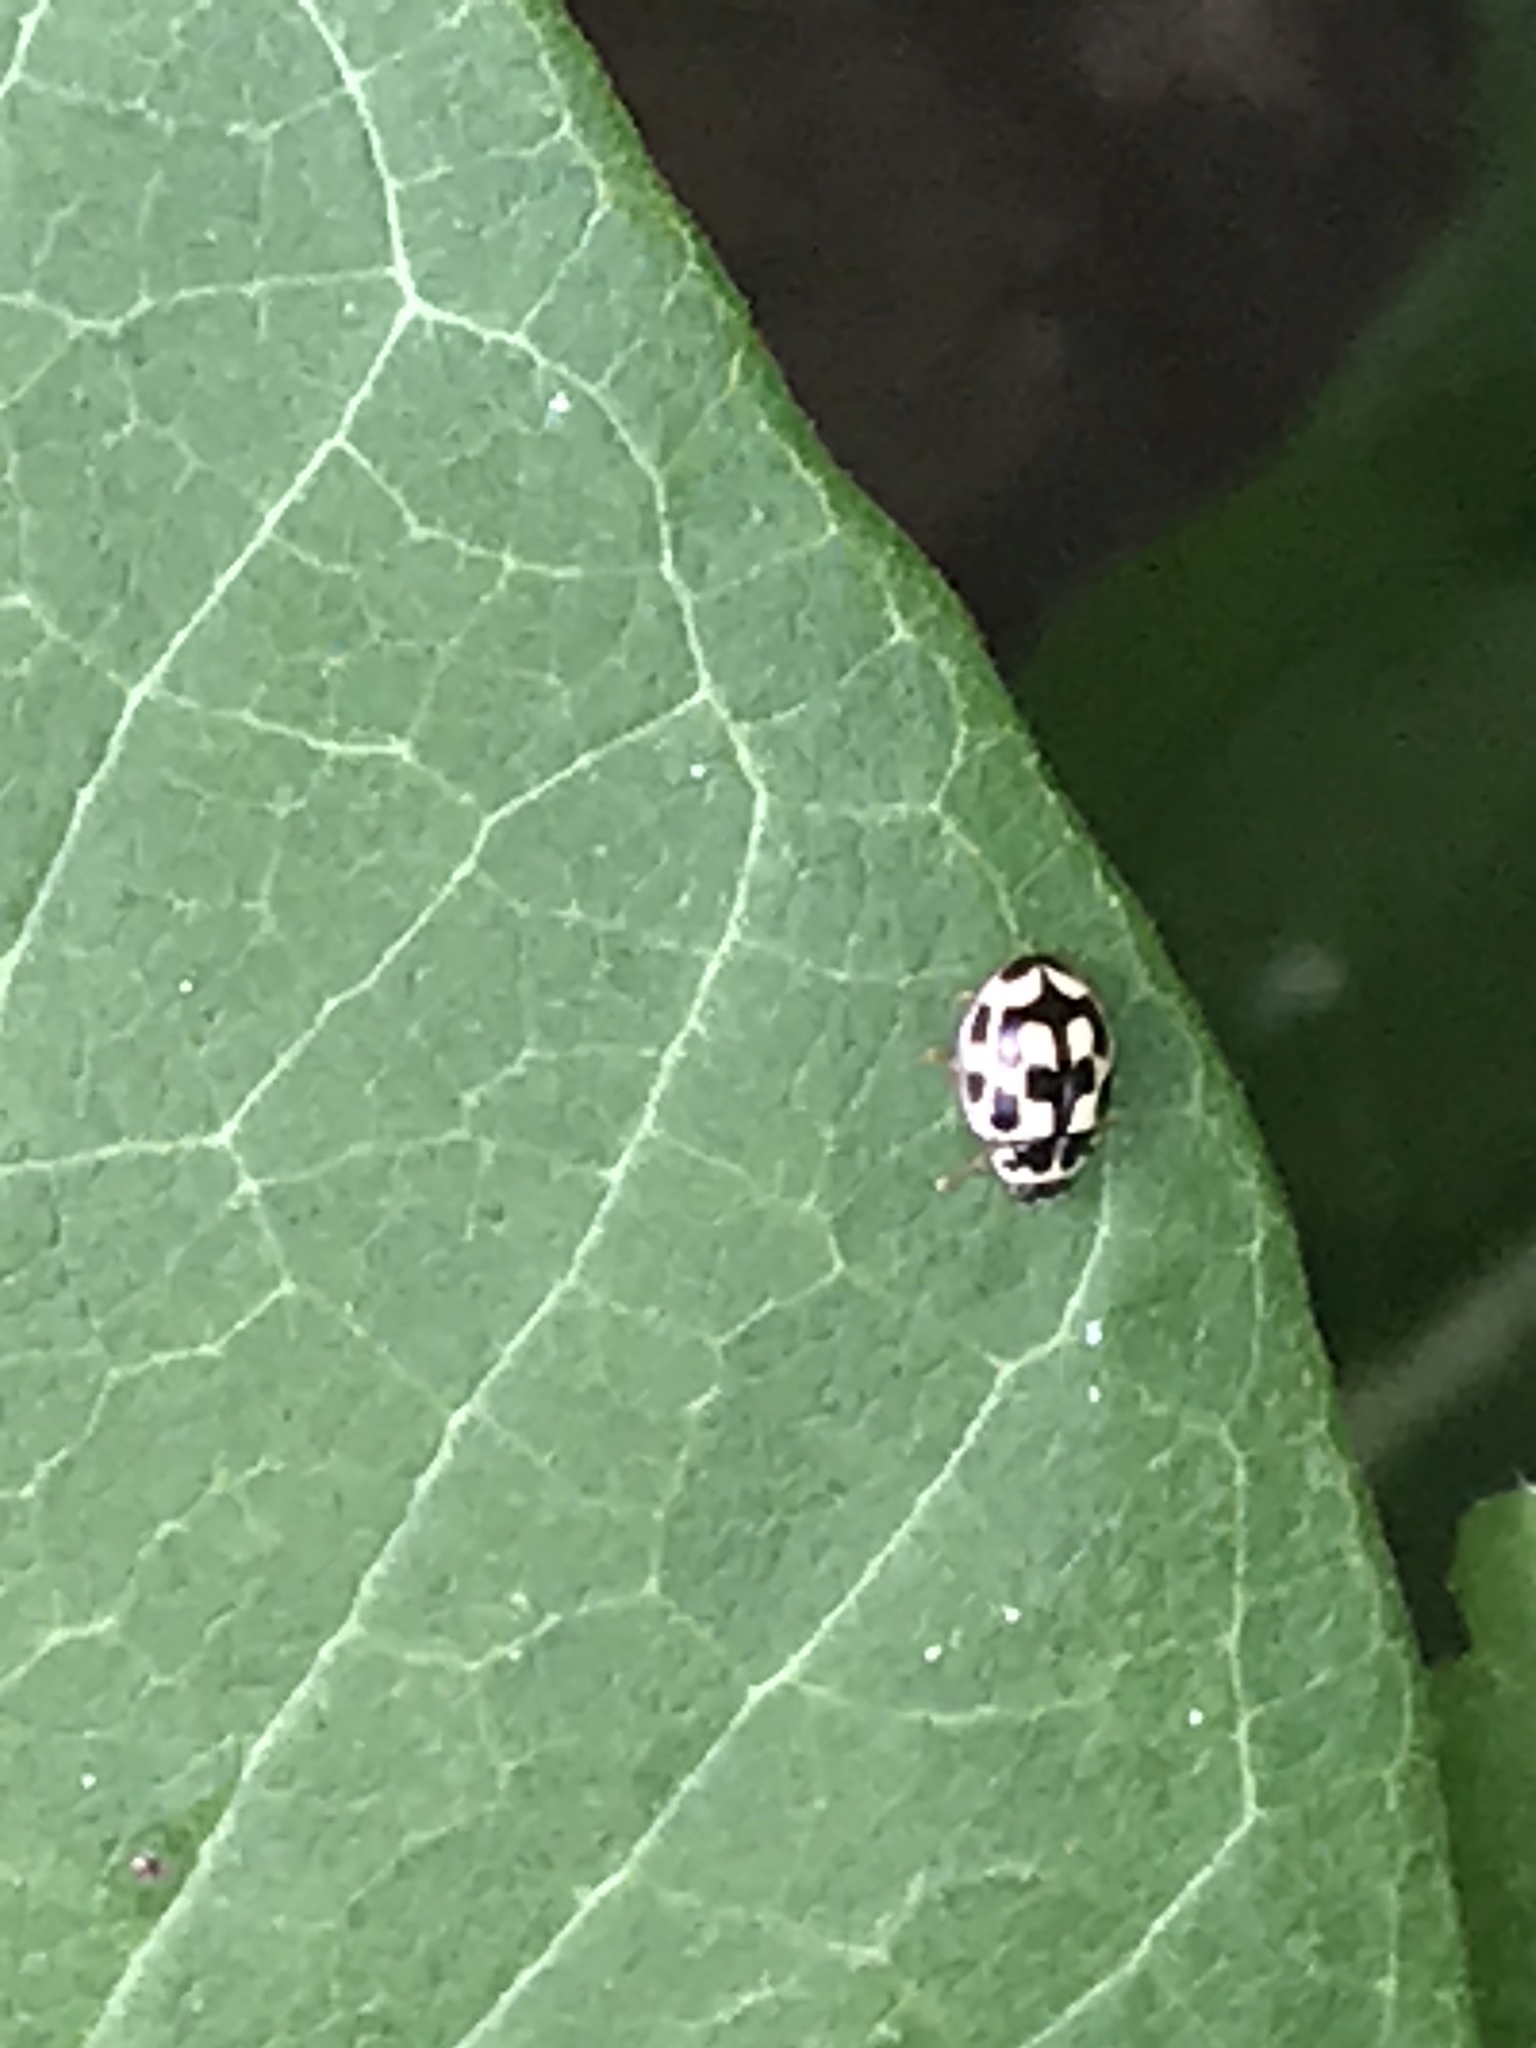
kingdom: Animalia
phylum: Arthropoda
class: Insecta
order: Coleoptera
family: Coccinellidae
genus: Propylaea
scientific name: Propylaea quatuordecimpunctata
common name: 14-spotted ladybird beetle
